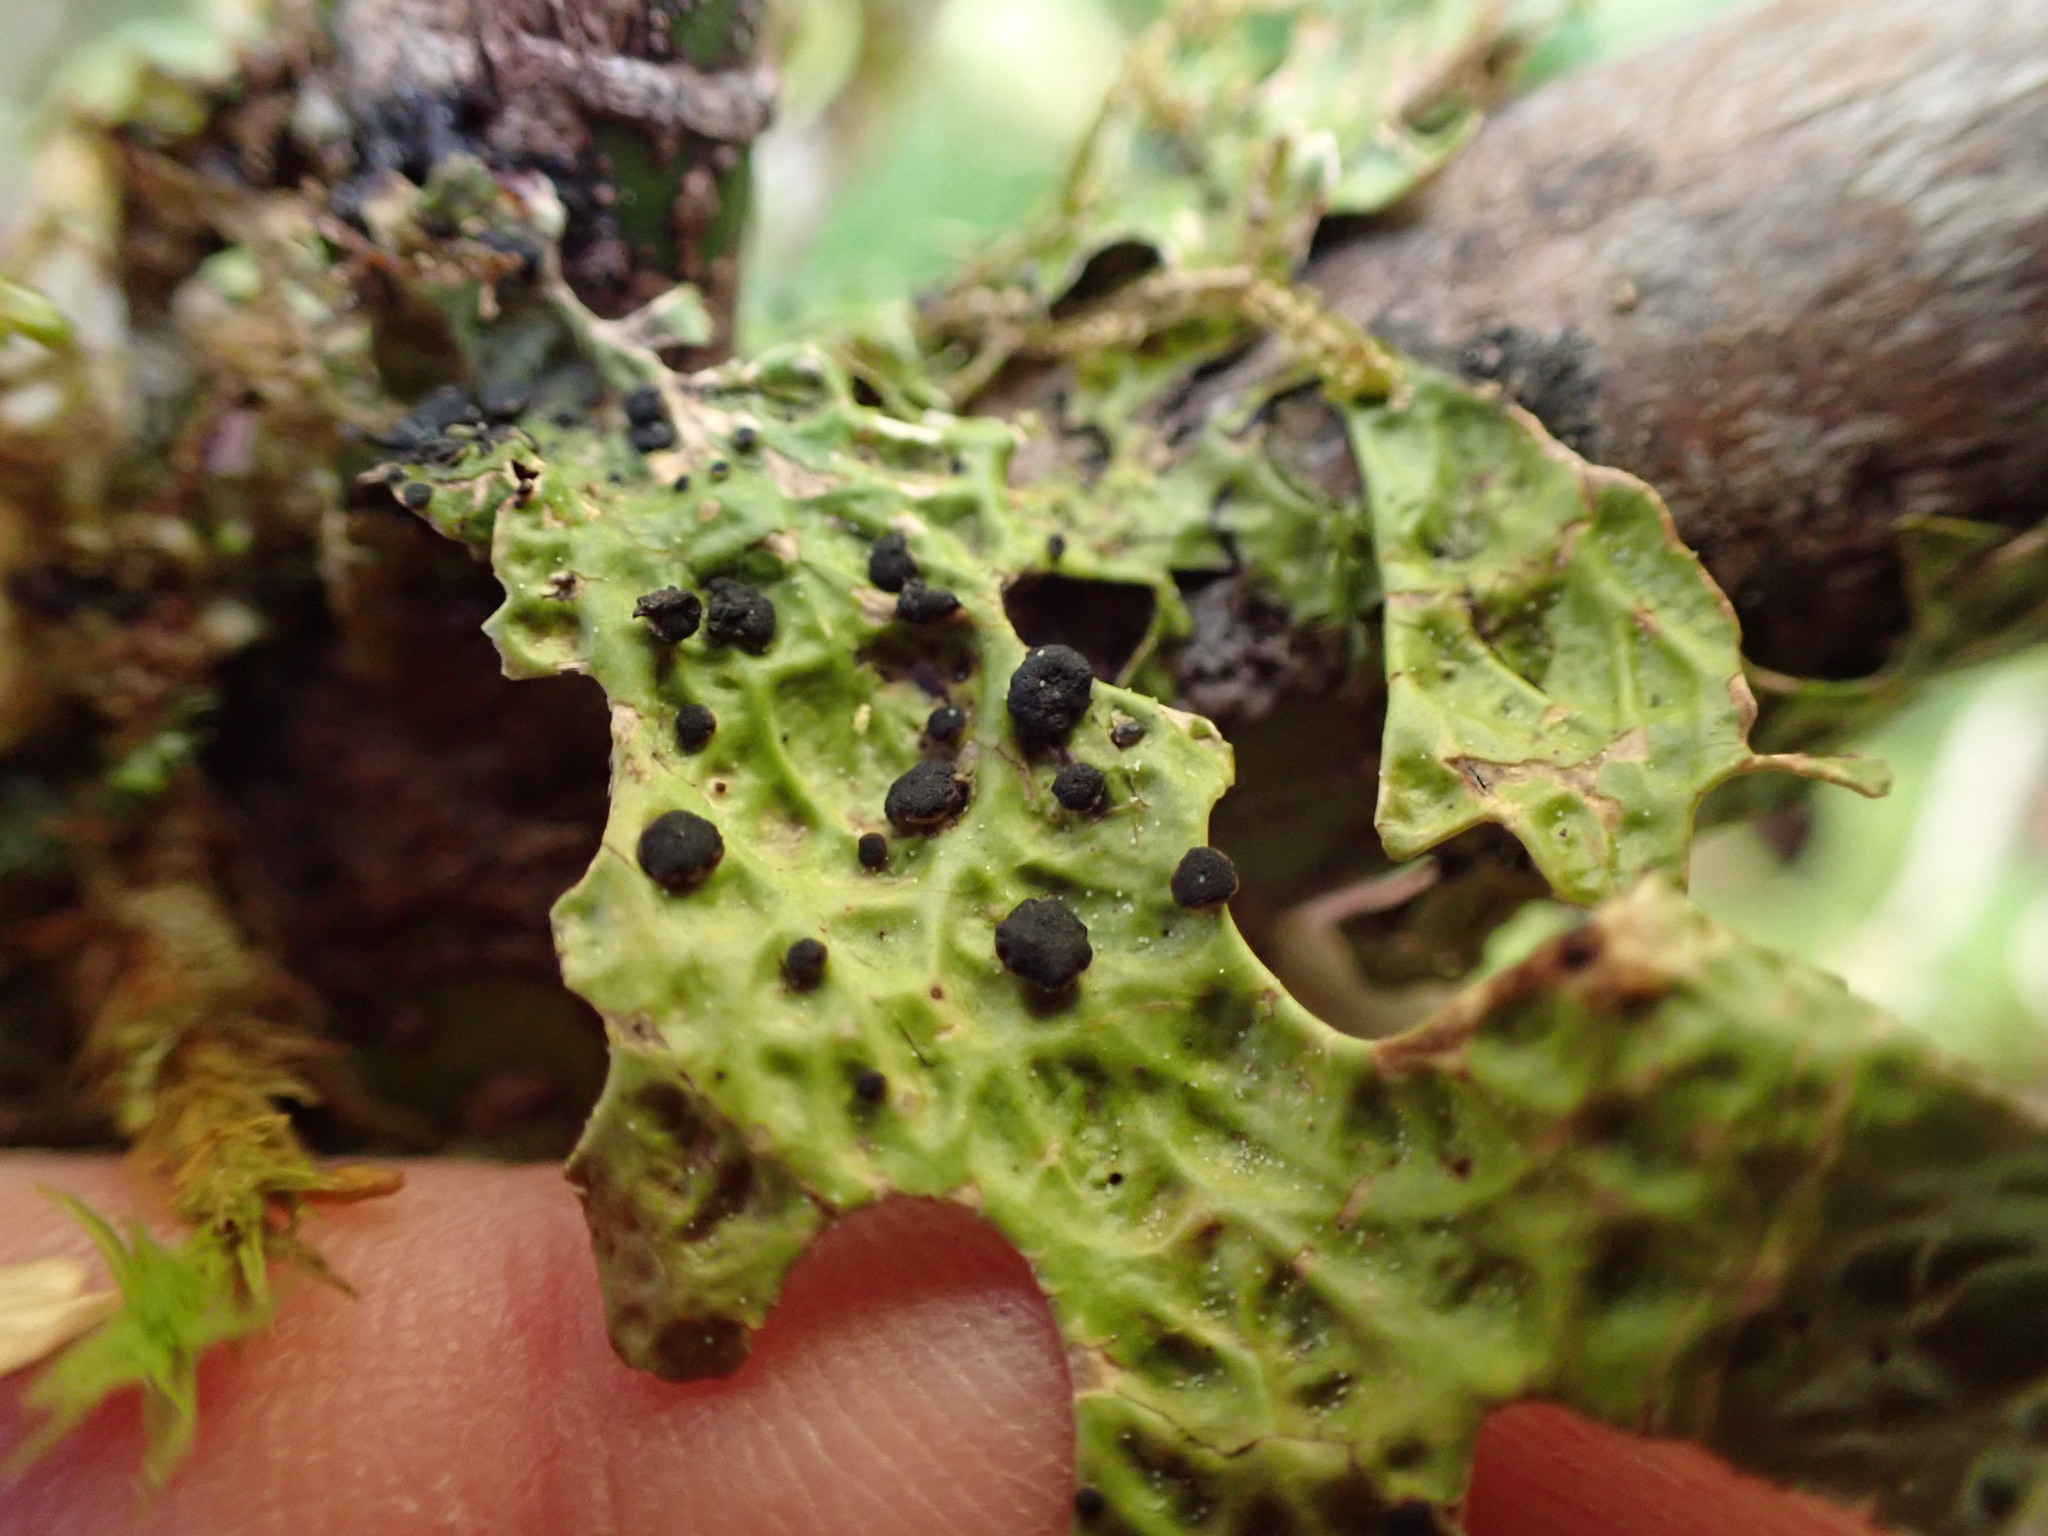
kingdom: Fungi
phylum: Ascomycota
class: Arthoniomycetes
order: Arthoniales
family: Lecanographaceae
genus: Plectocarpon
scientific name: Plectocarpon lichenum
